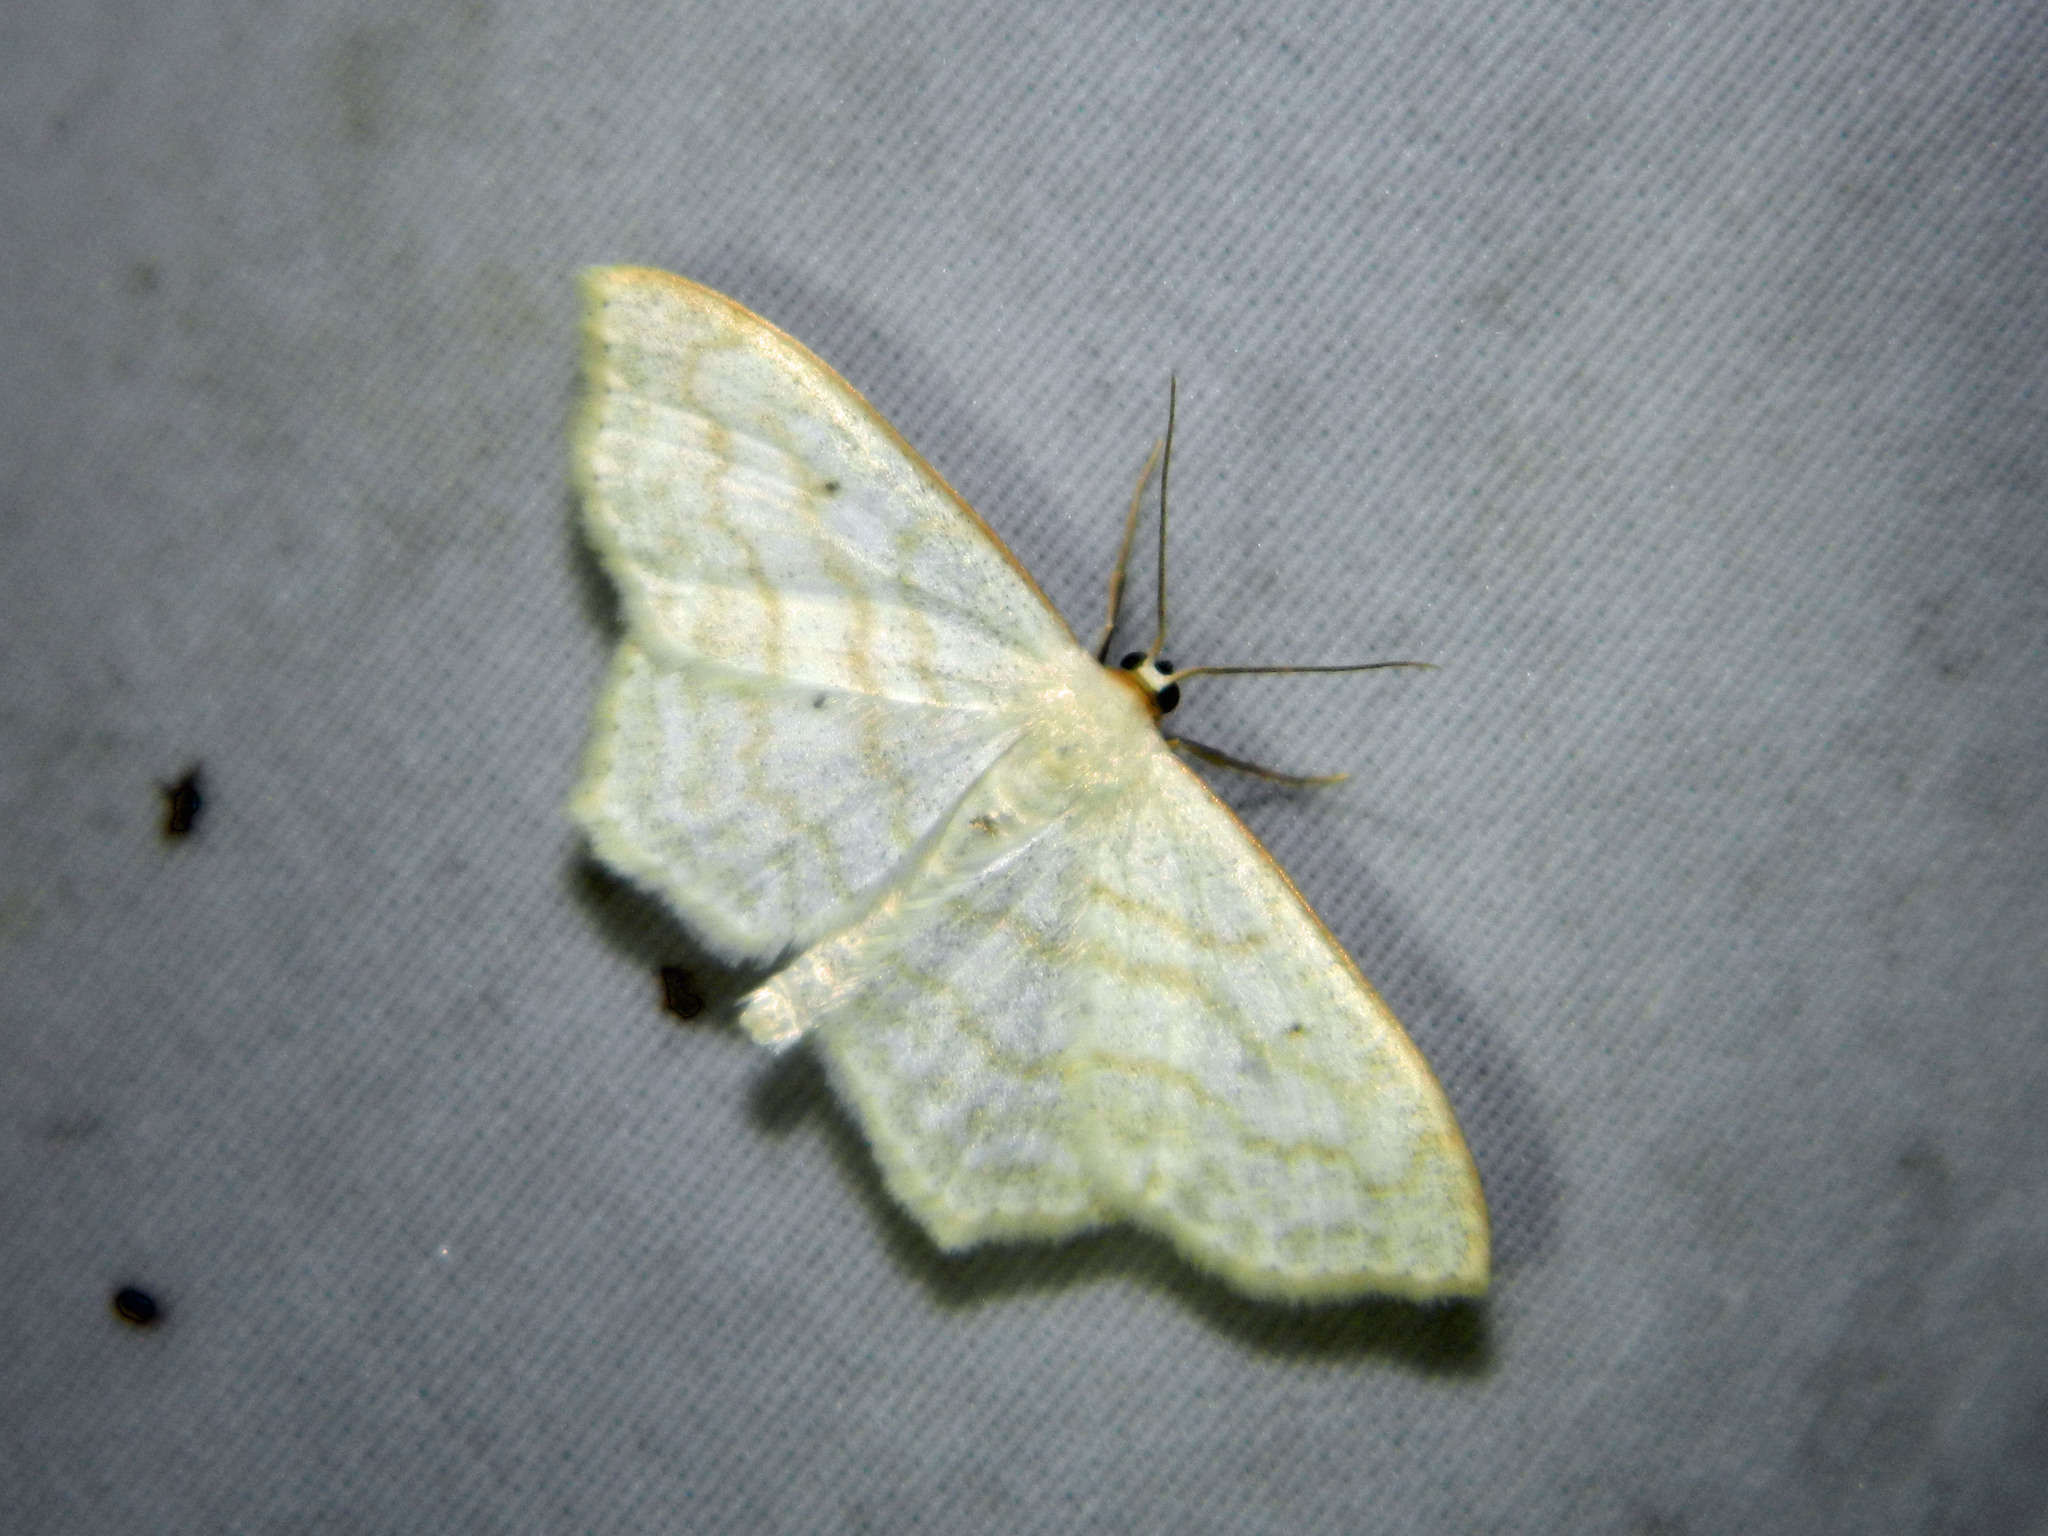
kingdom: Animalia
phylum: Arthropoda
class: Insecta
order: Lepidoptera
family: Geometridae
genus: Scopula
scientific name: Scopula limboundata
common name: Large lace border
